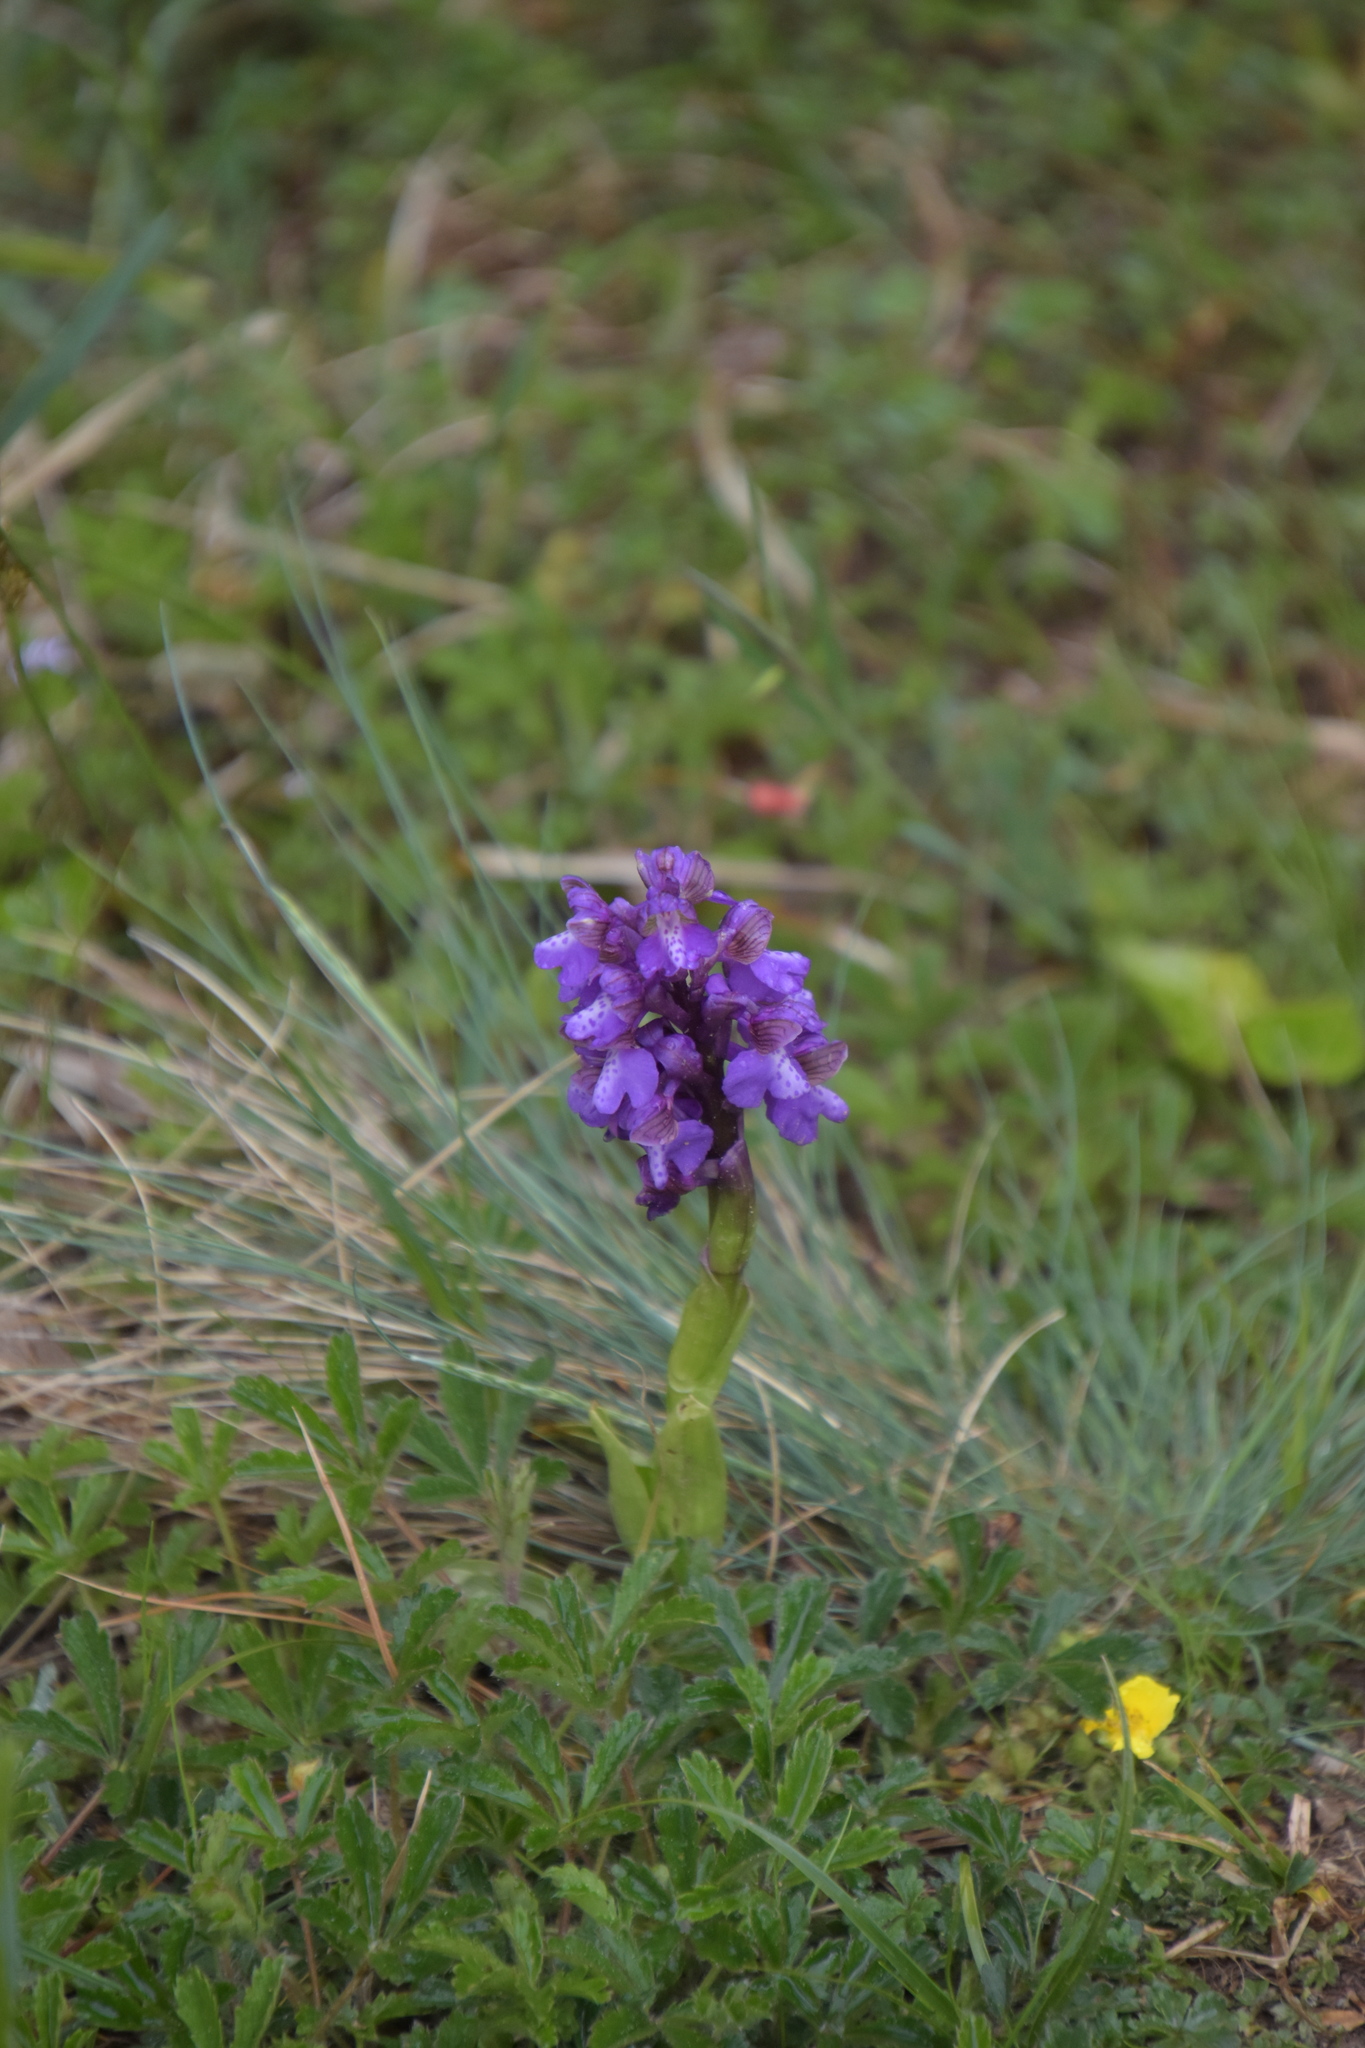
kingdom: Plantae
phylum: Tracheophyta
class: Liliopsida
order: Asparagales
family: Orchidaceae
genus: Anacamptis
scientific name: Anacamptis morio
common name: Green-winged orchid
